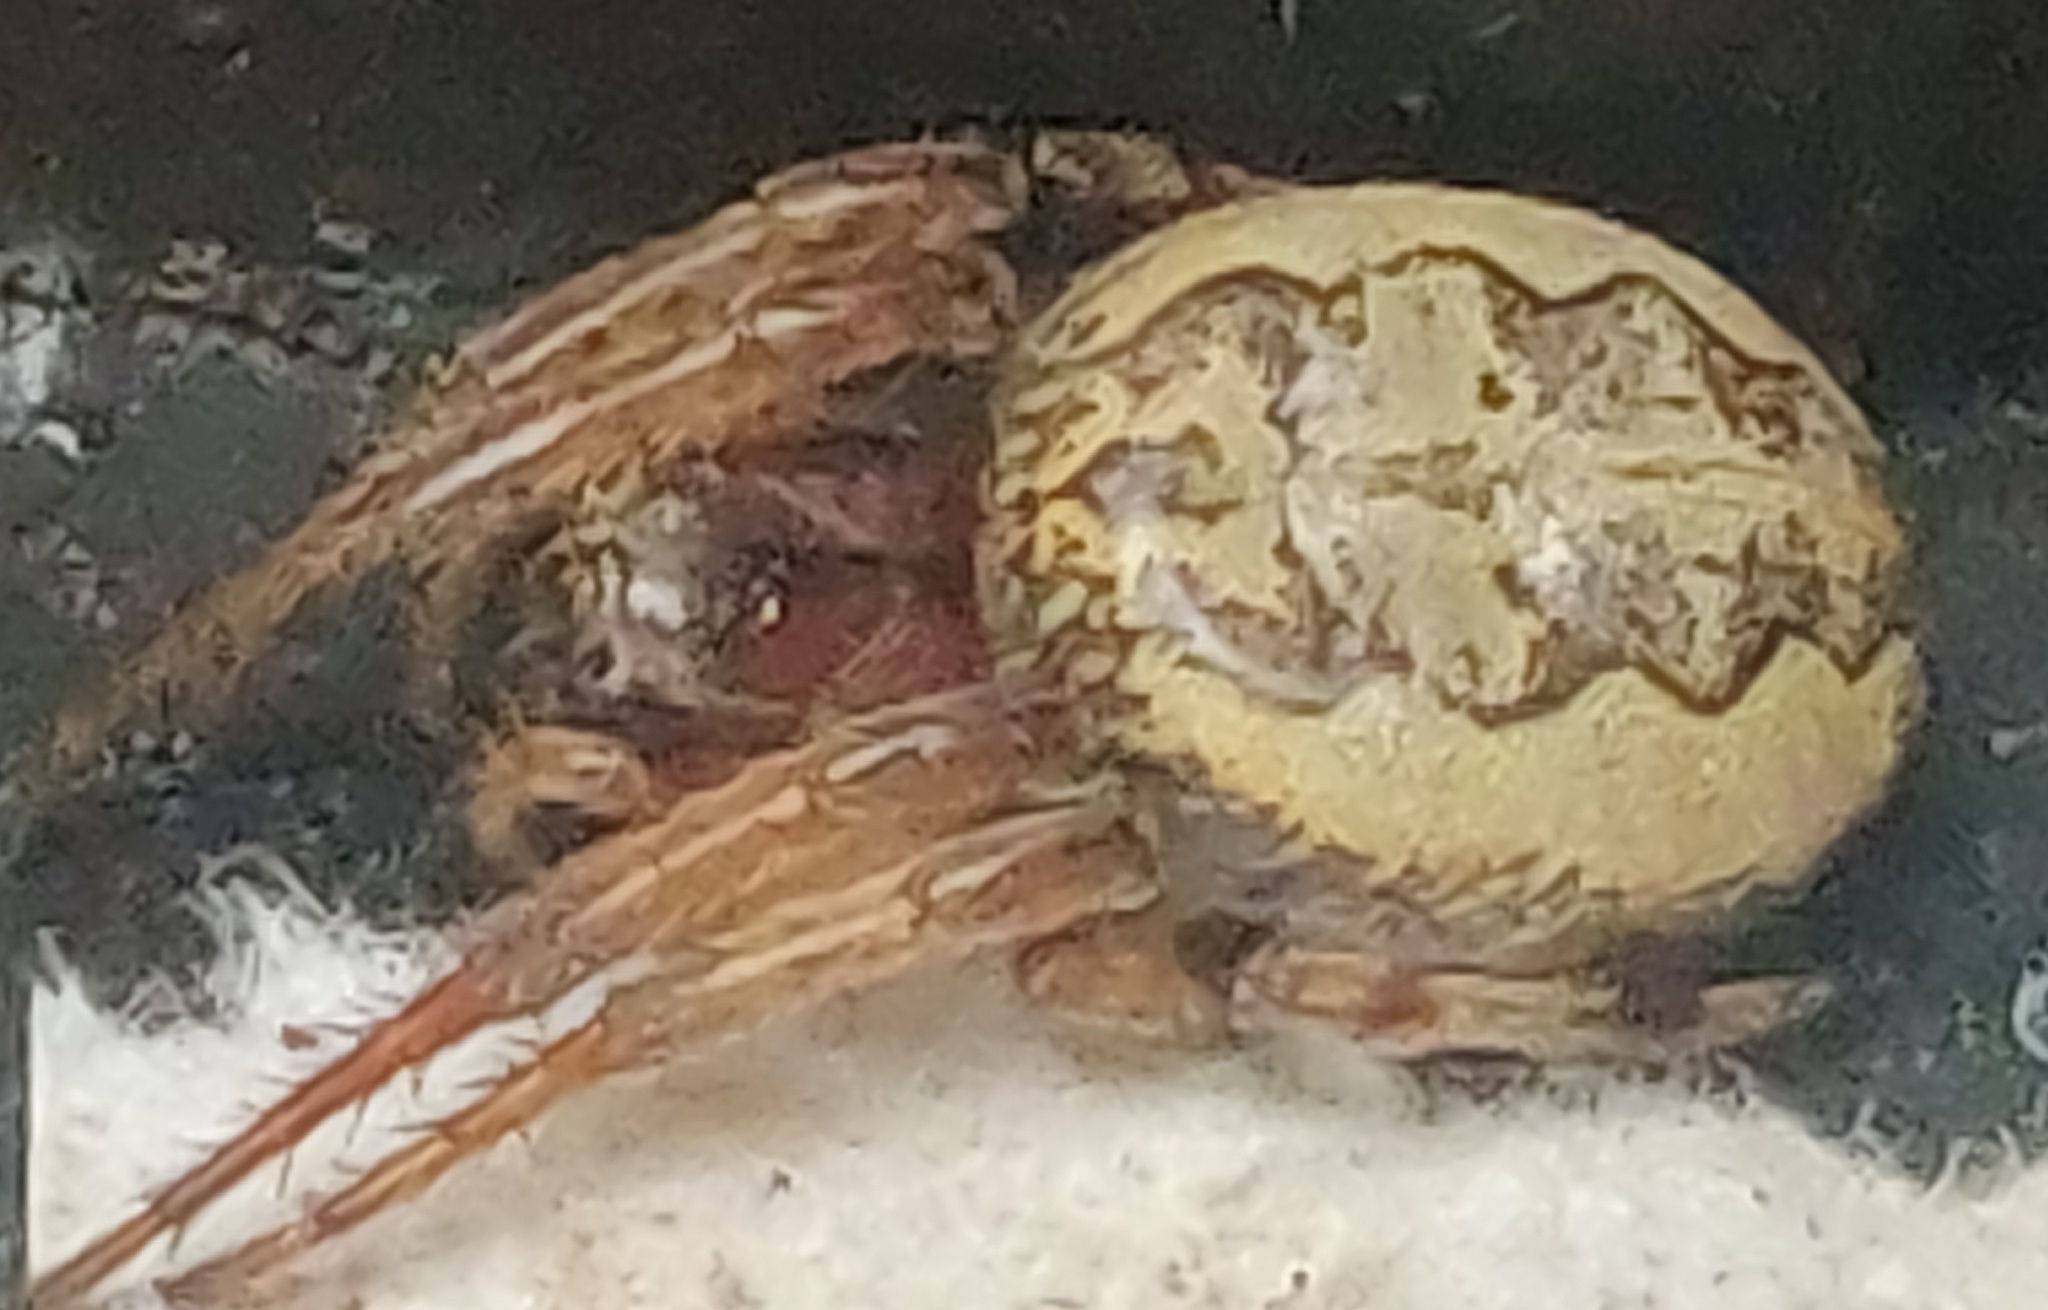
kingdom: Animalia
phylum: Arthropoda
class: Arachnida
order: Araneae
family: Araneidae
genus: Larinioides
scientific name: Larinioides cornutus
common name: Furrow orbweaver
